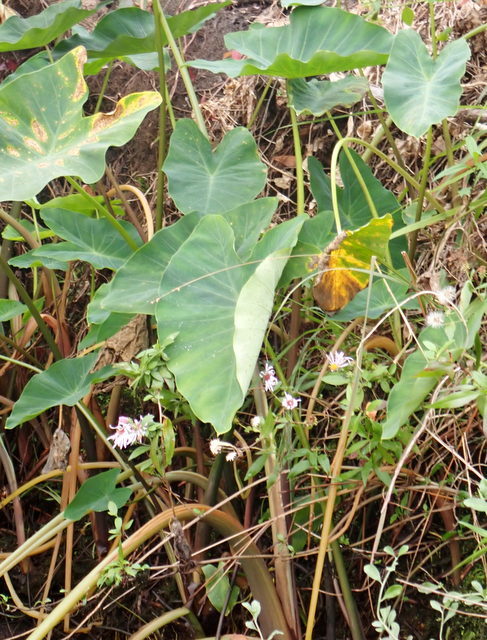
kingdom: Plantae
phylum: Tracheophyta
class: Liliopsida
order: Alismatales
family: Araceae
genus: Colocasia
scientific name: Colocasia esculenta
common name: Taro
